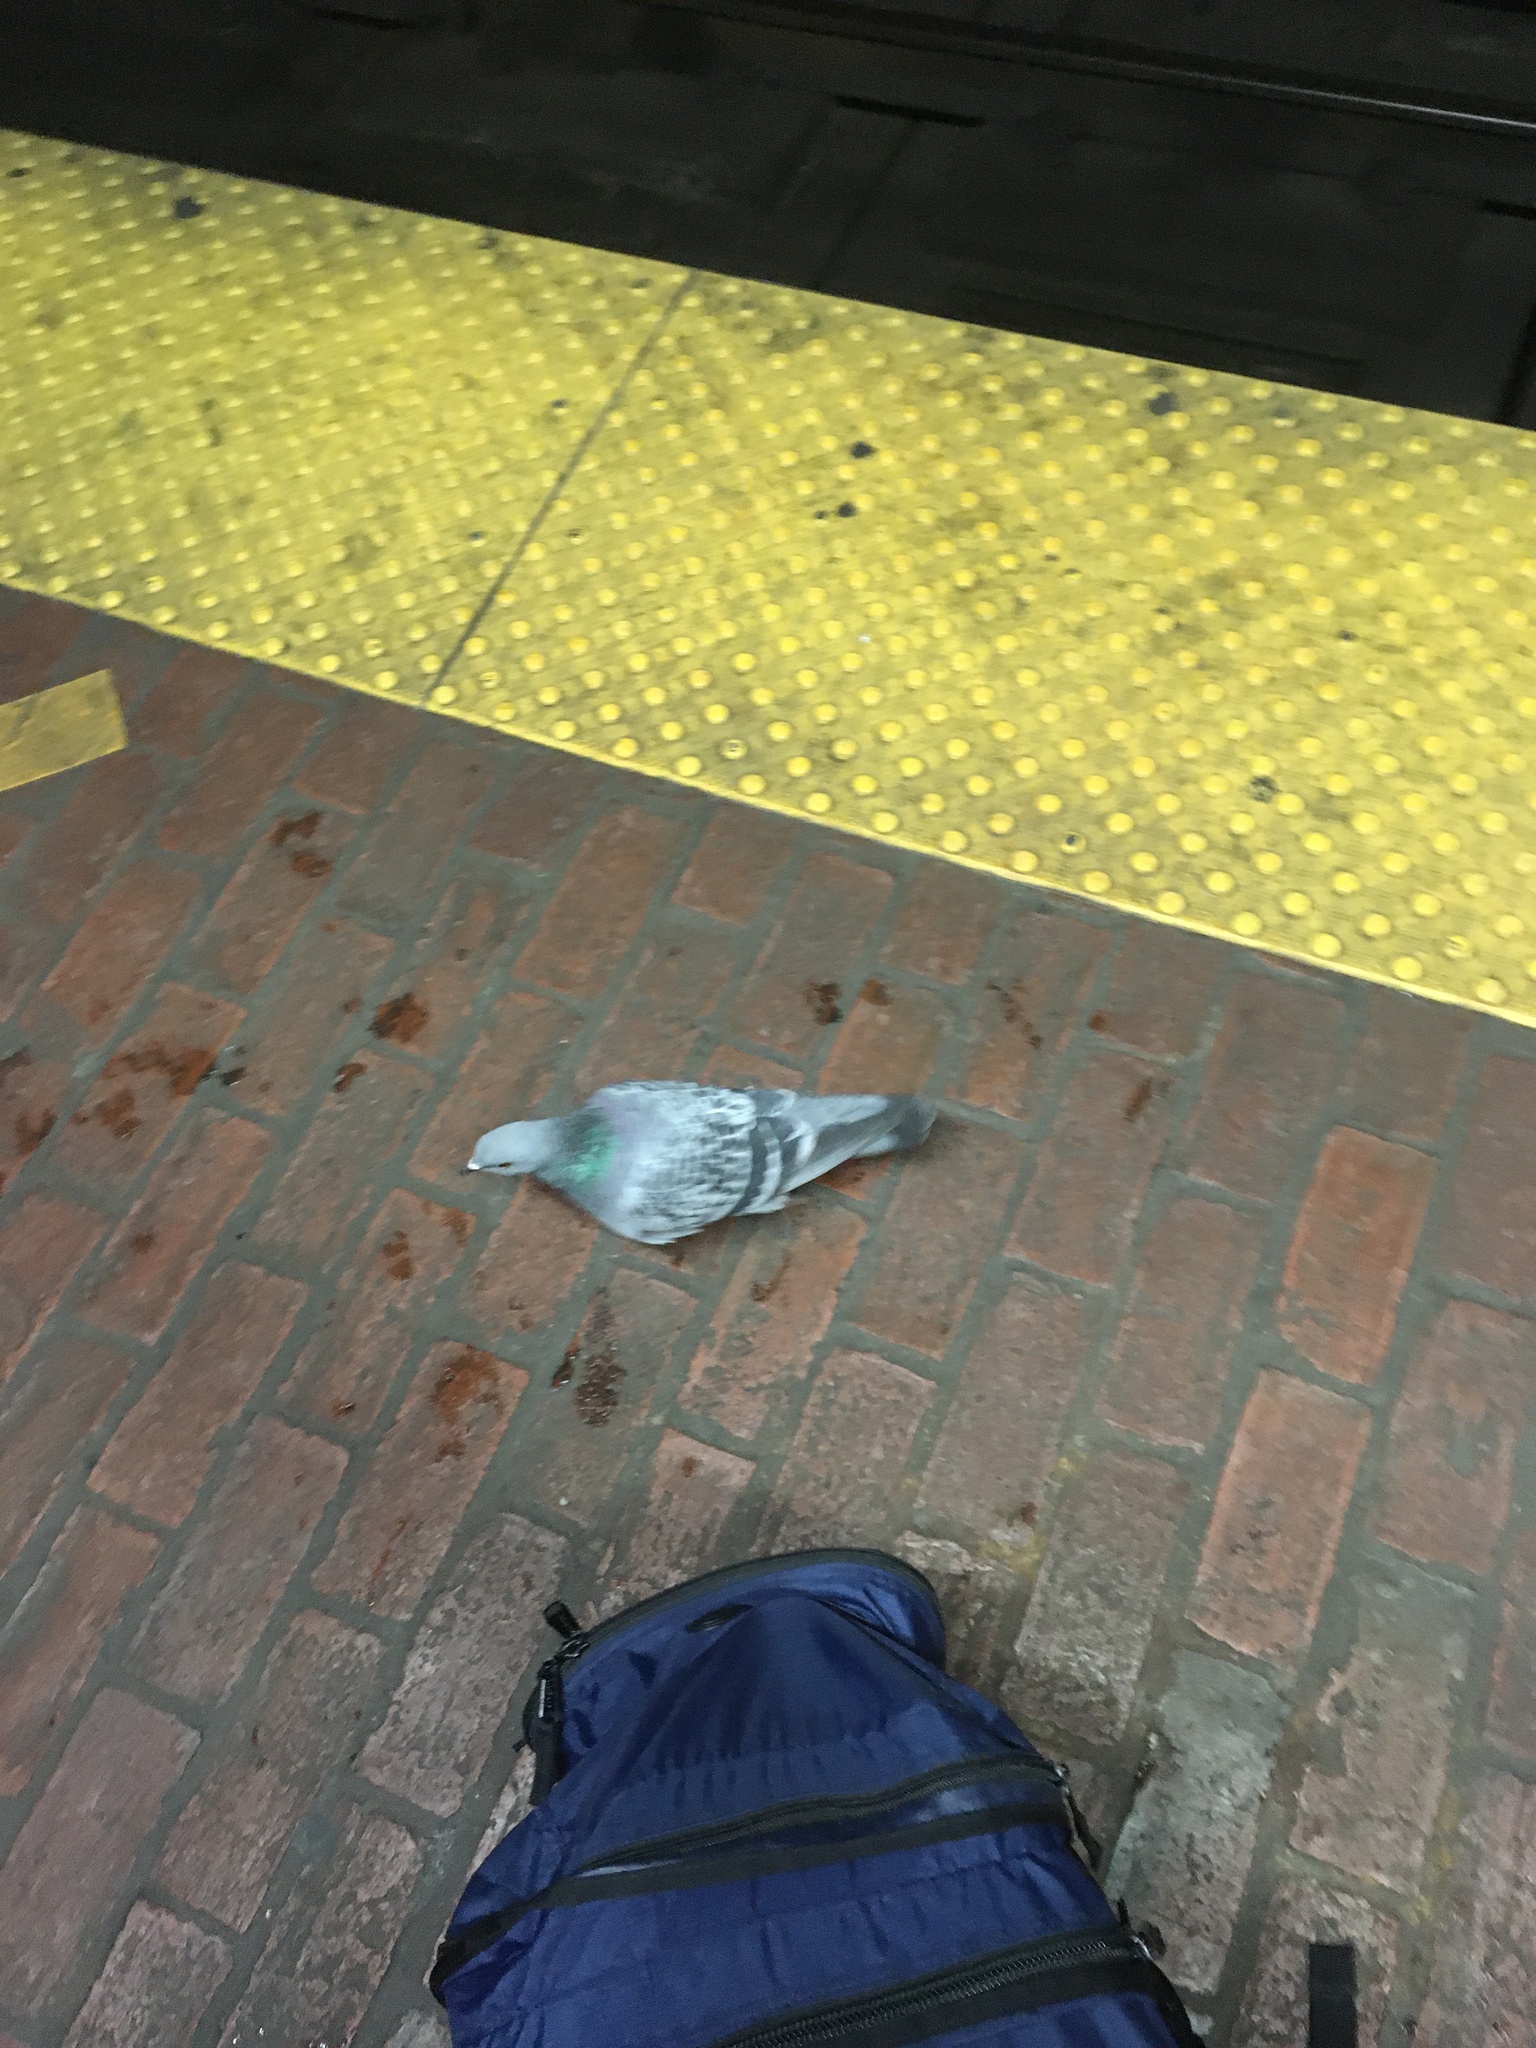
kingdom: Animalia
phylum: Chordata
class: Aves
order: Columbiformes
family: Columbidae
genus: Columba
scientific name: Columba livia
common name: Rock pigeon
